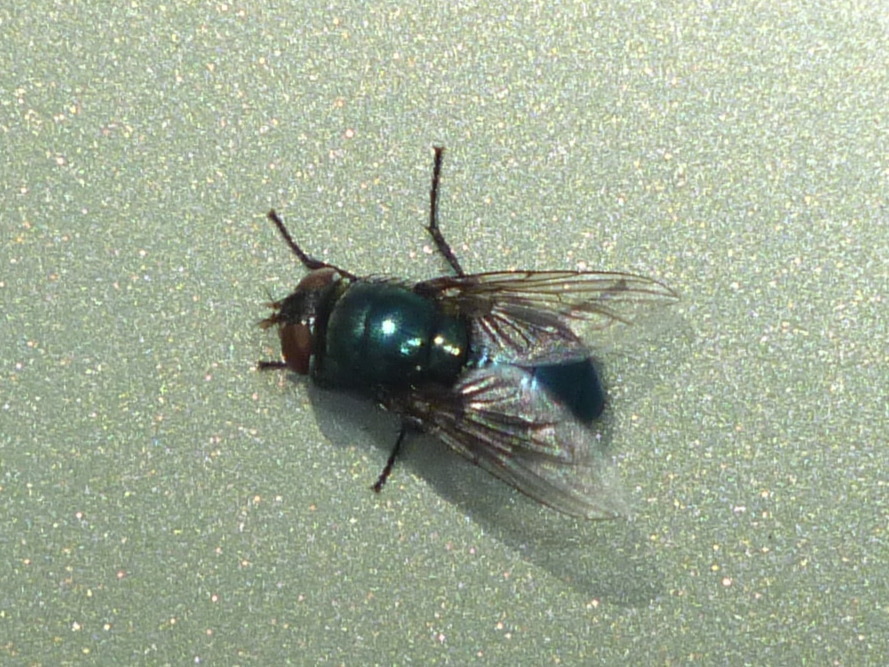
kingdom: Animalia
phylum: Arthropoda
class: Insecta
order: Diptera
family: Calliphoridae
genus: Phormia
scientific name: Phormia regina
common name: Black blow fly
